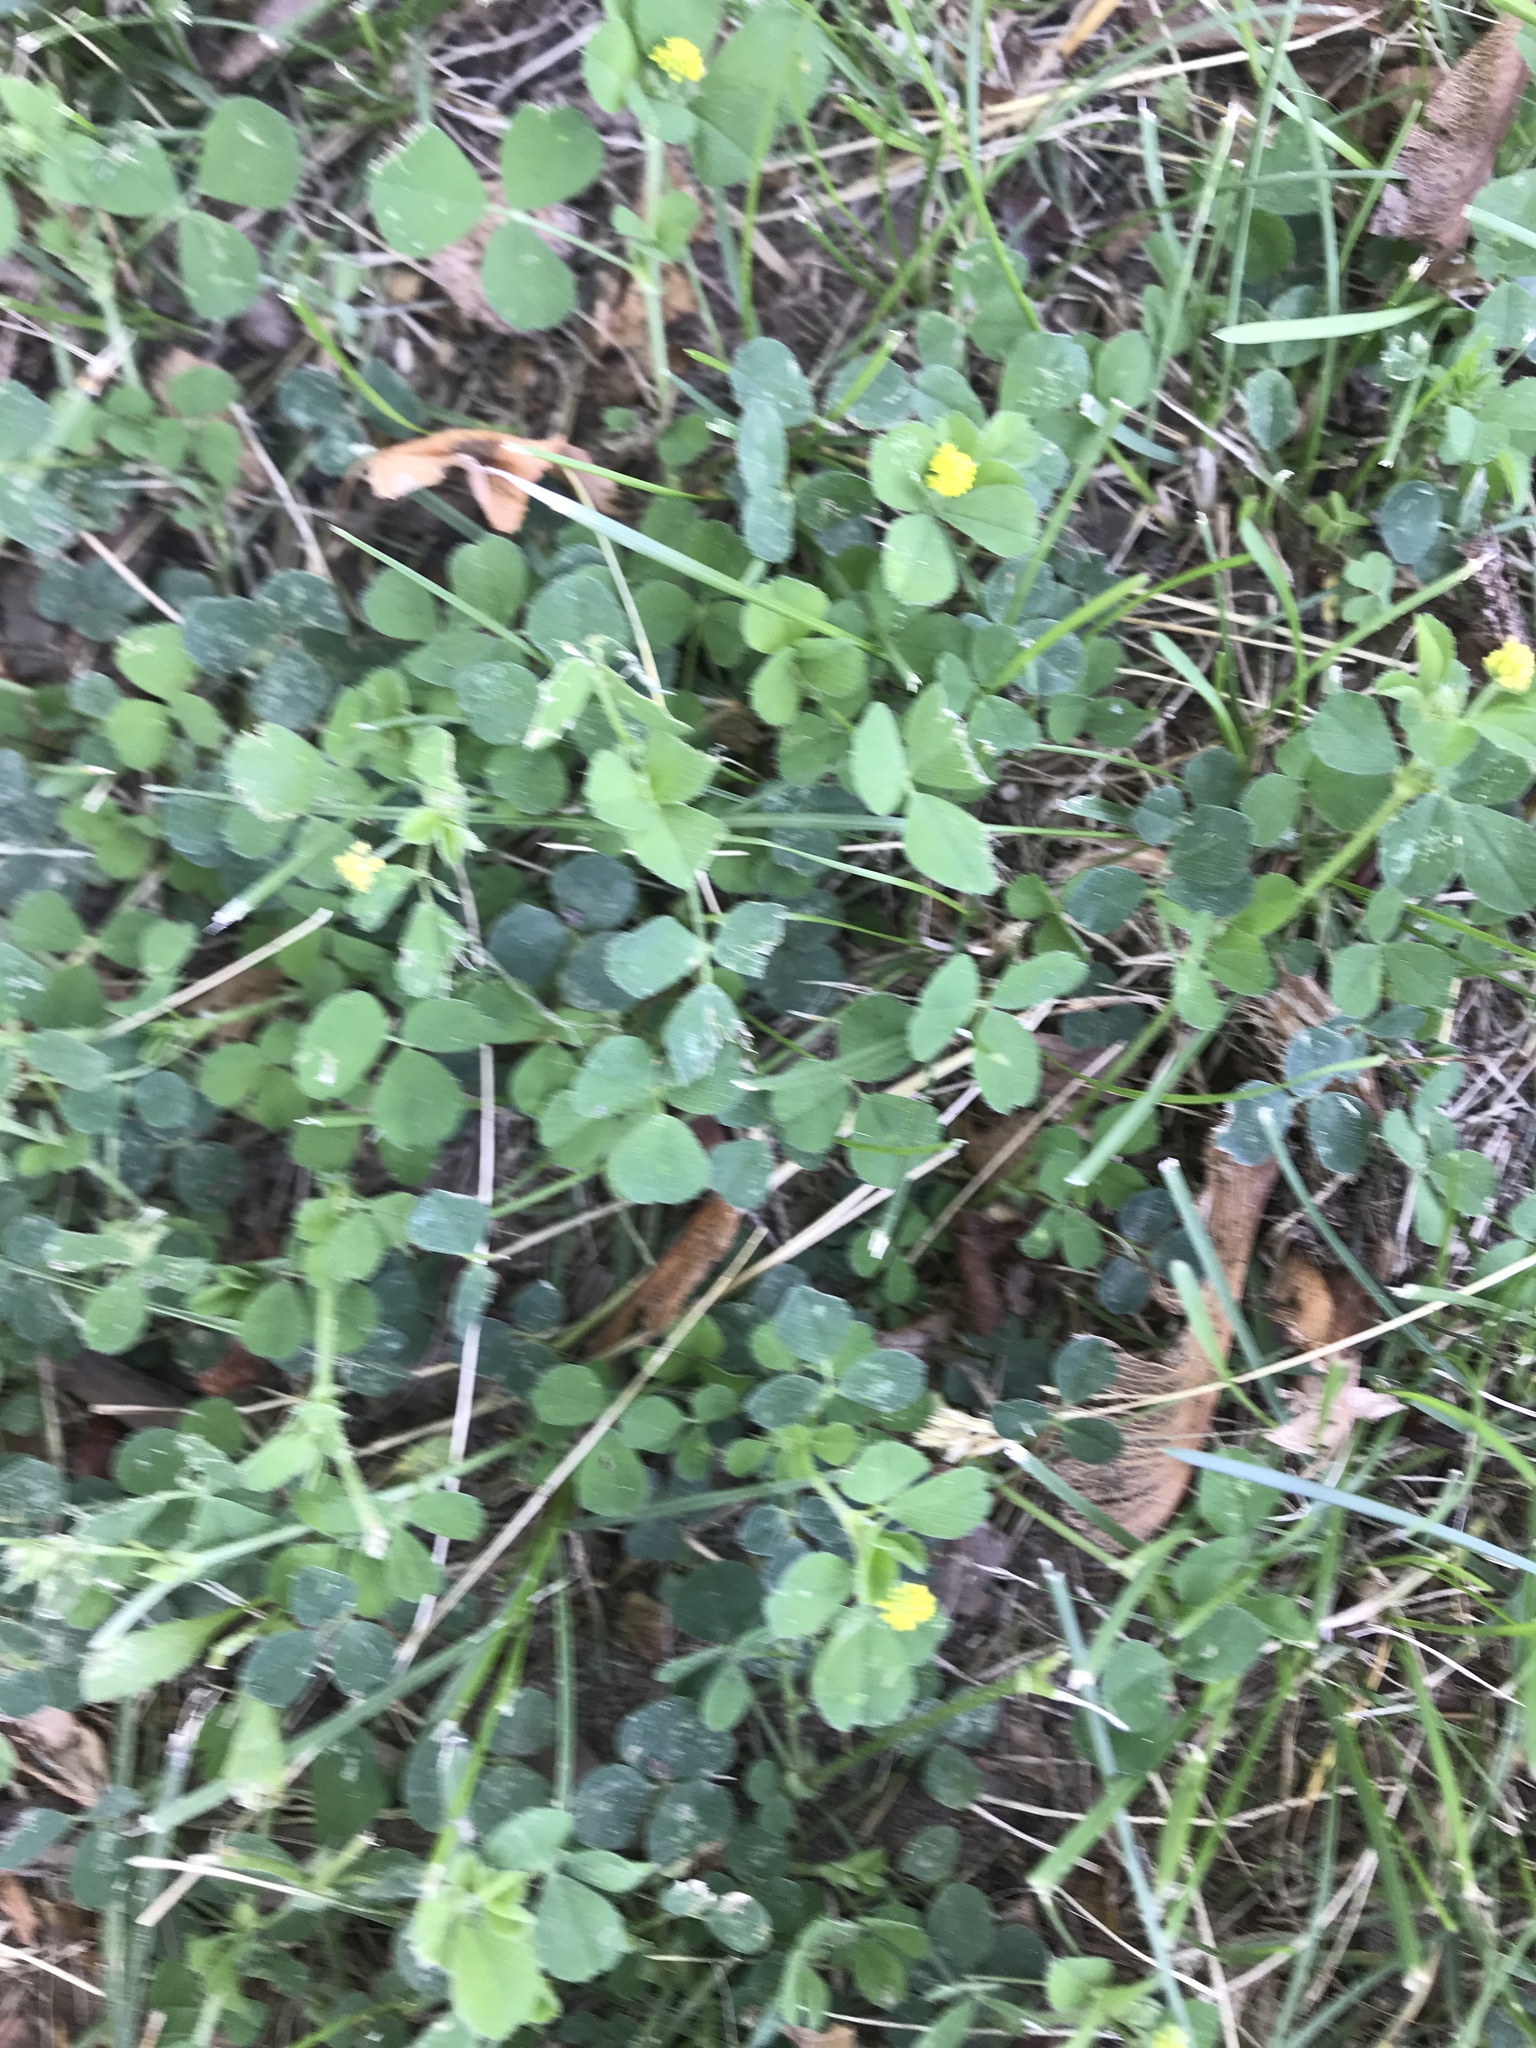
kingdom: Plantae
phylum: Tracheophyta
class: Magnoliopsida
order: Fabales
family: Fabaceae
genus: Medicago
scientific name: Medicago lupulina
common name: Black medick
